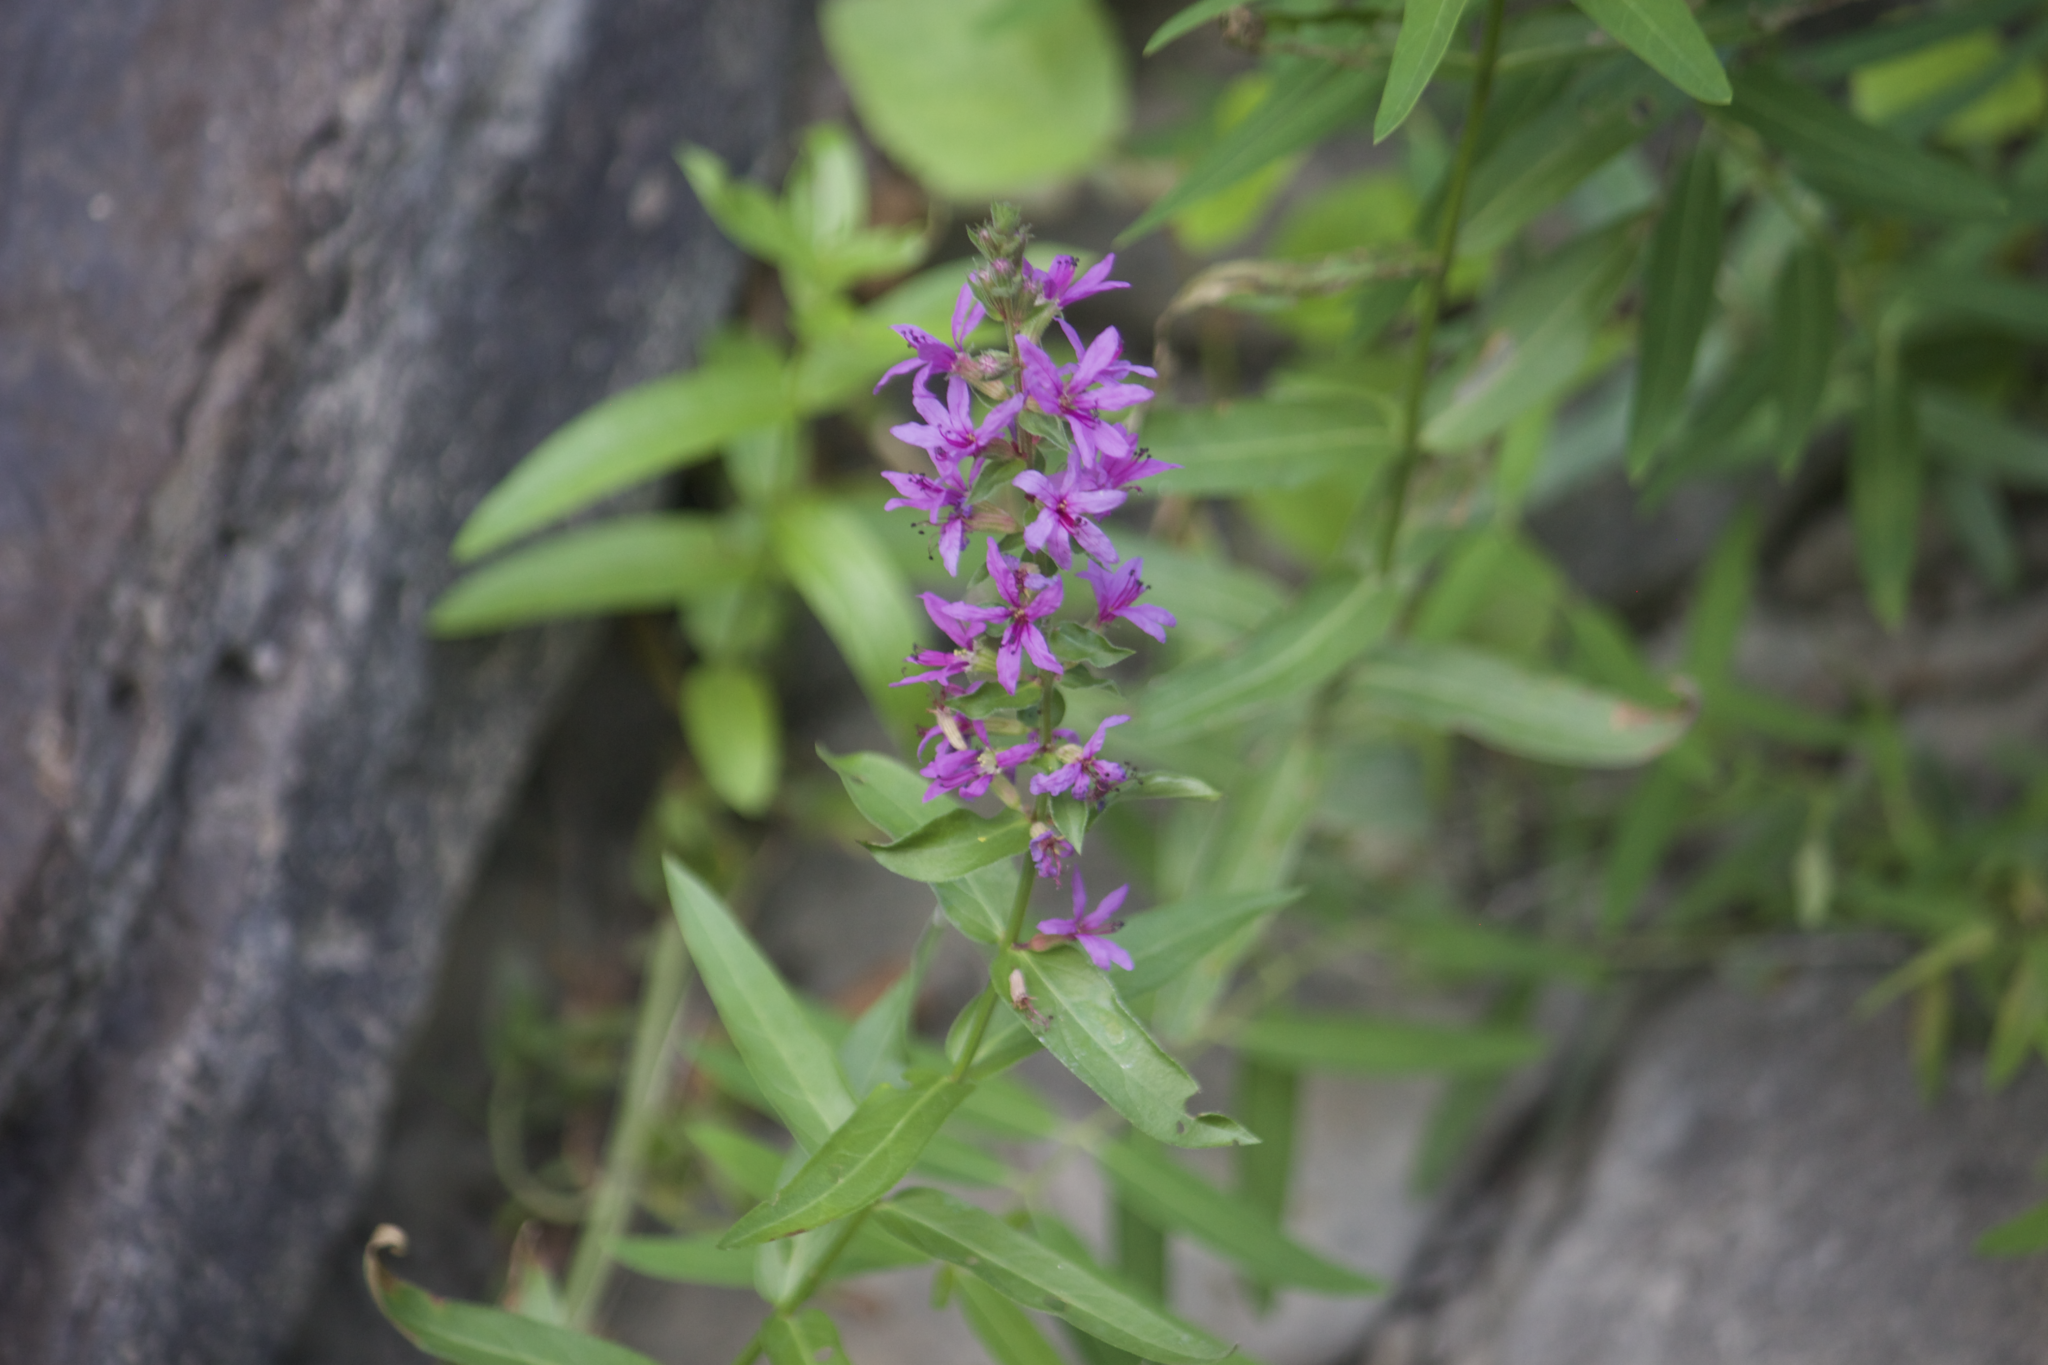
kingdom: Plantae
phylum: Tracheophyta
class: Magnoliopsida
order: Myrtales
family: Lythraceae
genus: Lythrum
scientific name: Lythrum salicaria
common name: Purple loosestrife
